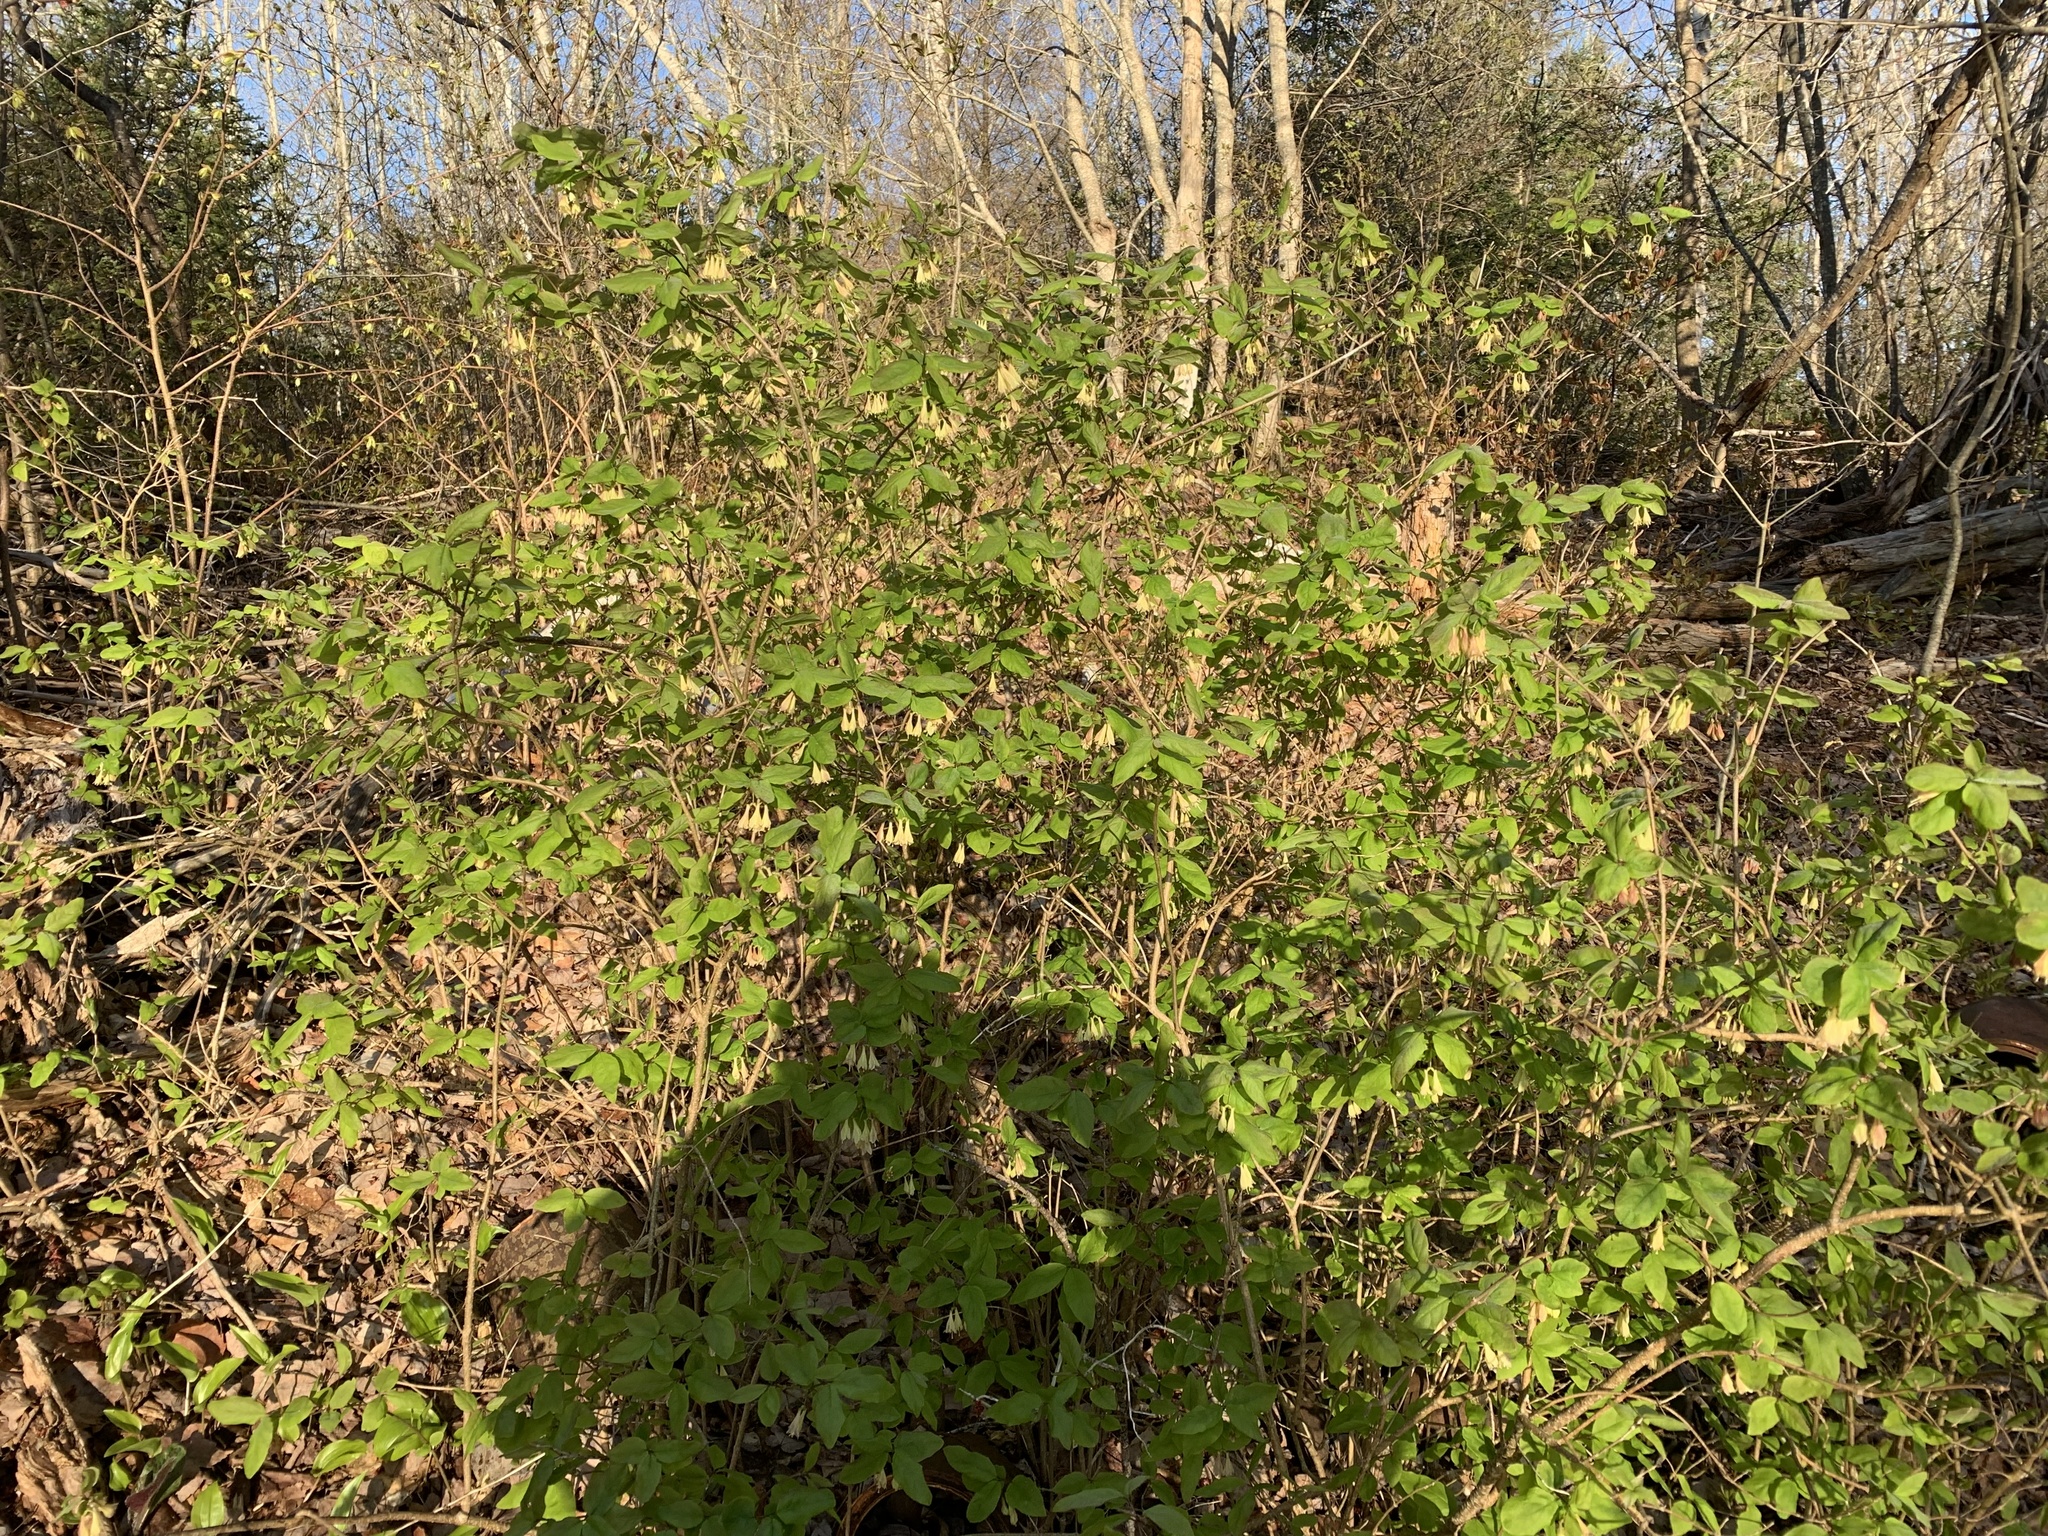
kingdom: Plantae
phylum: Tracheophyta
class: Magnoliopsida
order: Dipsacales
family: Caprifoliaceae
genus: Lonicera
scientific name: Lonicera canadensis
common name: American fly-honeysuckle
